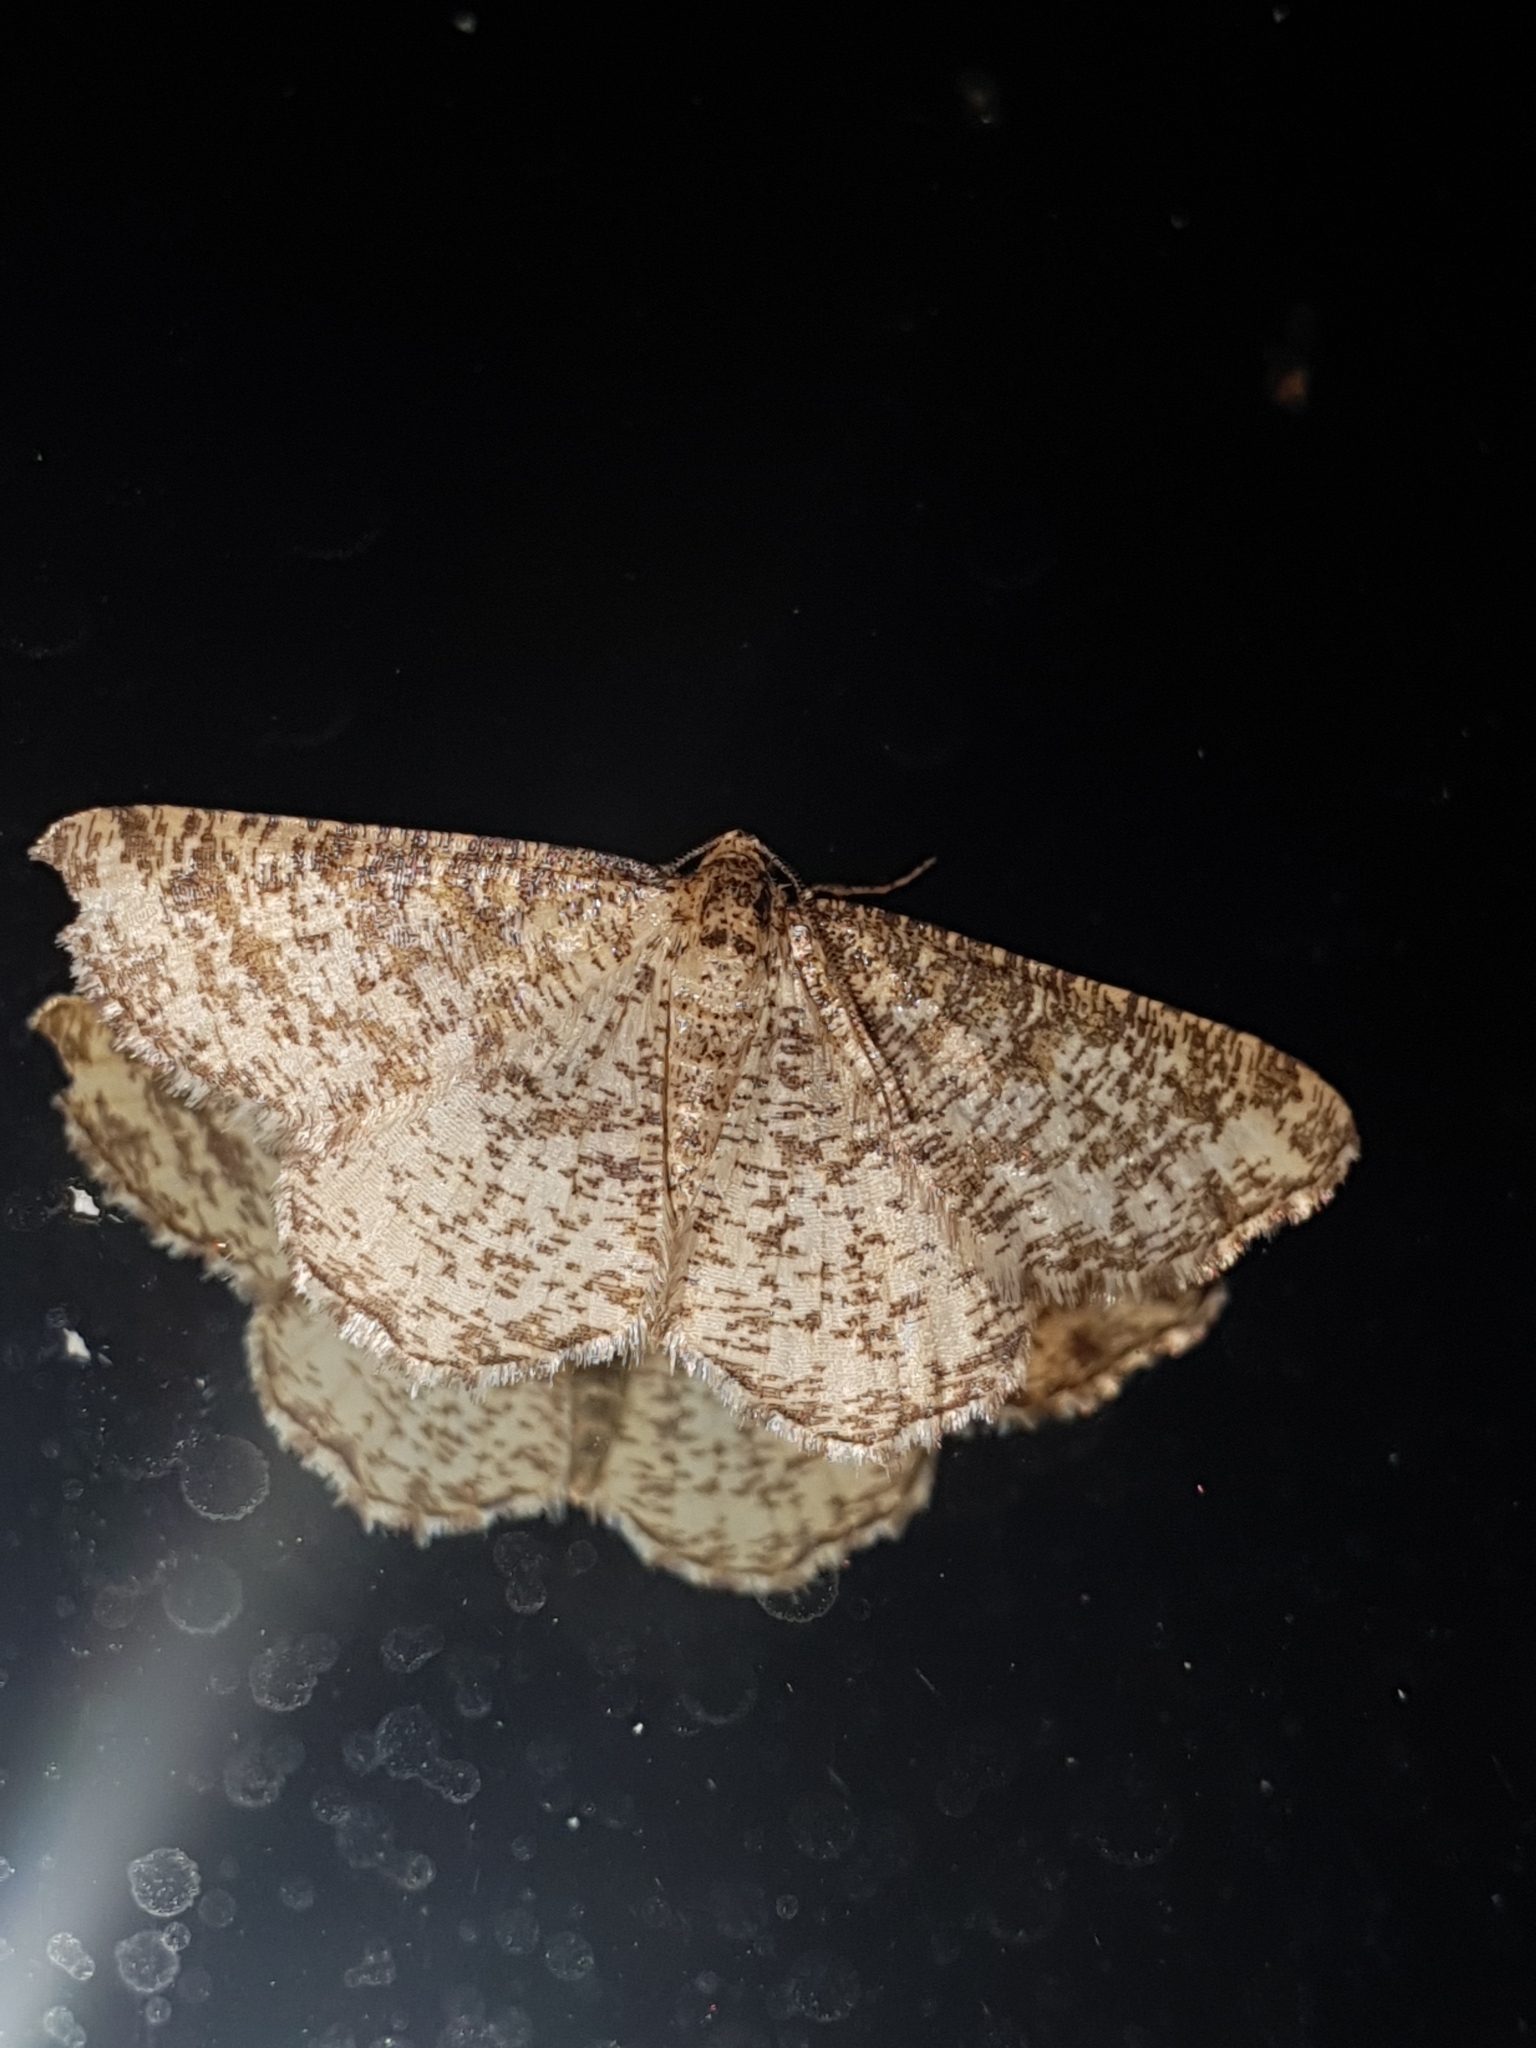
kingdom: Animalia
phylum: Arthropoda
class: Insecta
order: Lepidoptera
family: Geometridae
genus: Heliomata
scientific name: Heliomata glarearia
